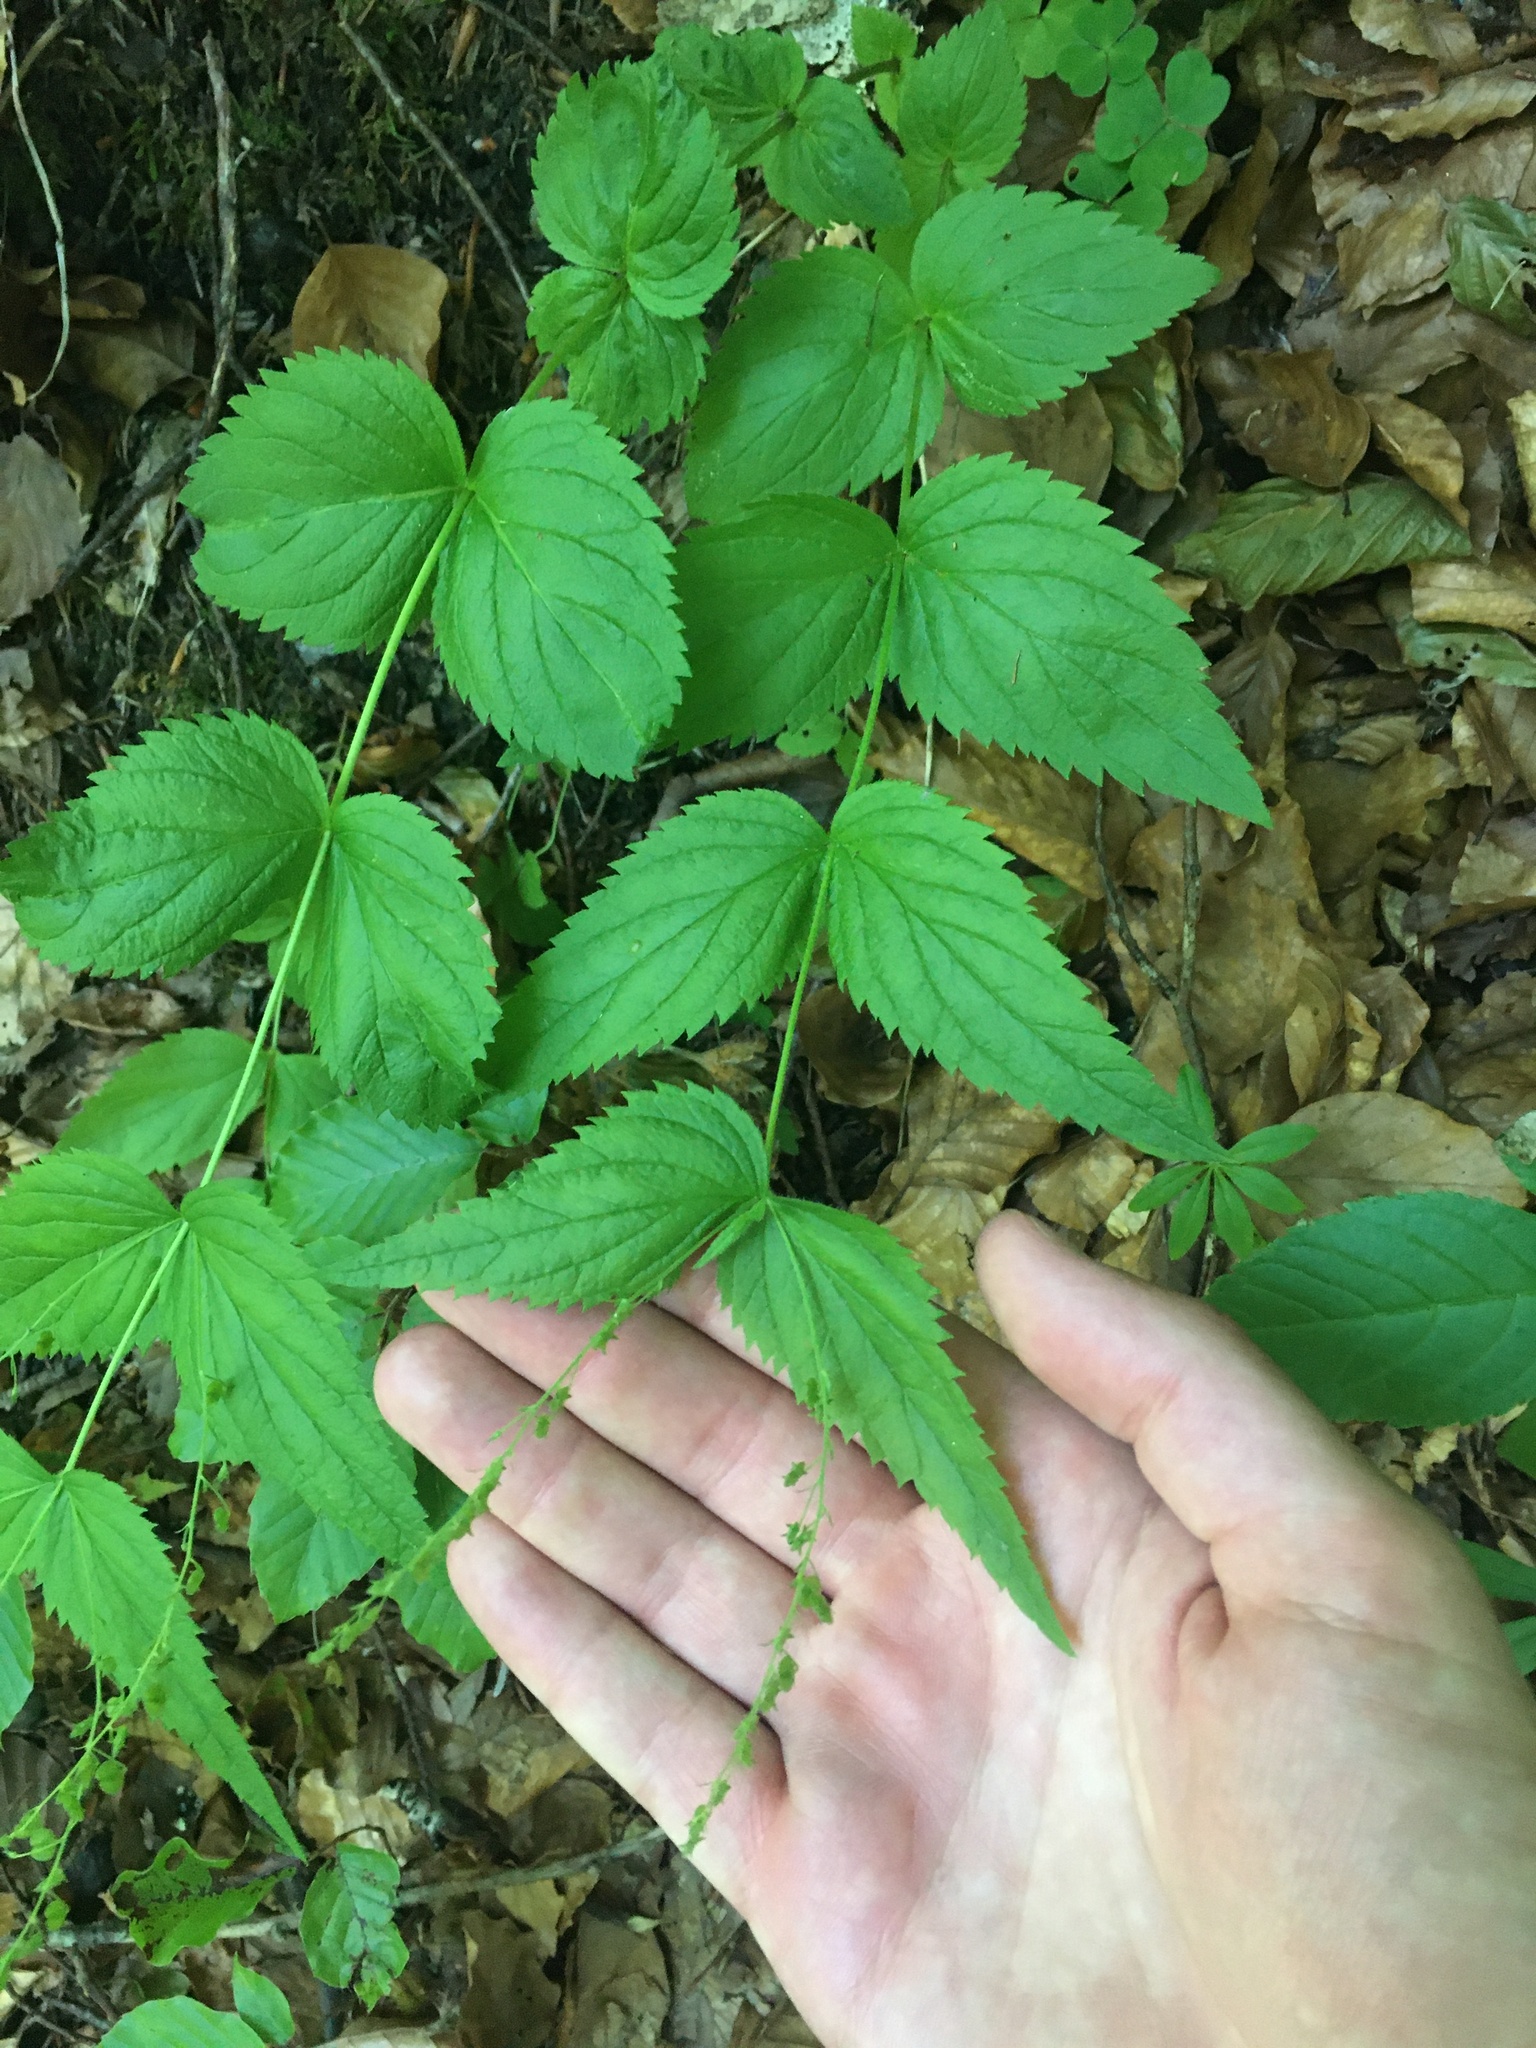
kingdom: Plantae
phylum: Tracheophyta
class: Magnoliopsida
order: Lamiales
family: Plantaginaceae
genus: Veronica
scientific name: Veronica urticifolia
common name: Nettle-leaf speedwell
